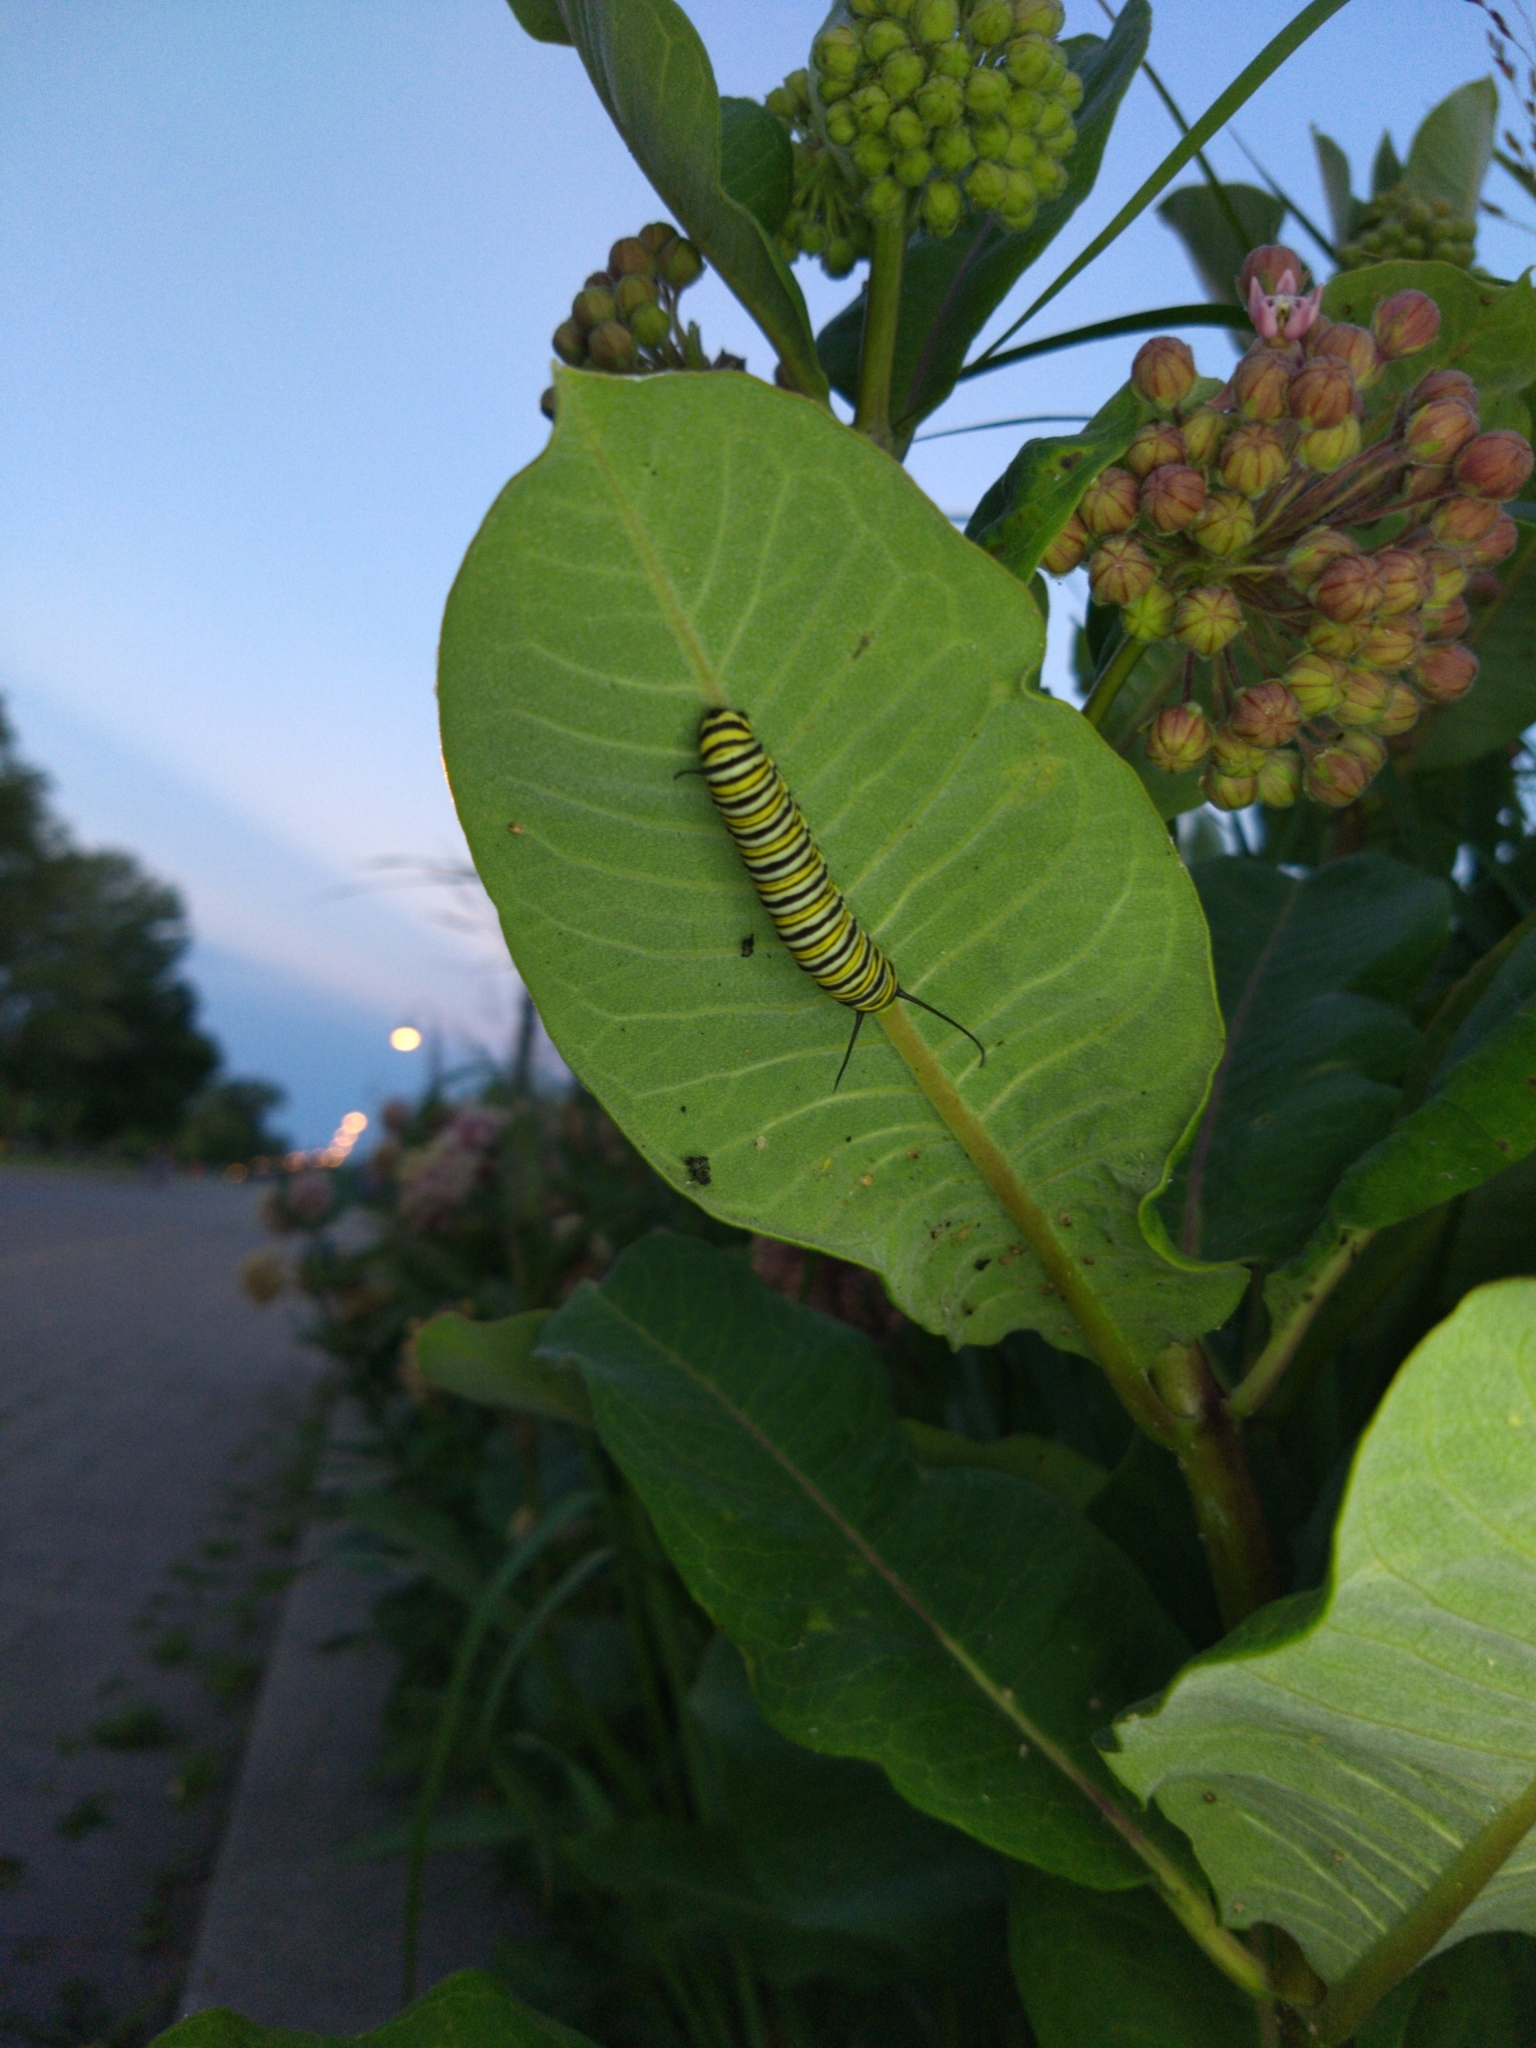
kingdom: Animalia
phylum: Arthropoda
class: Insecta
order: Lepidoptera
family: Nymphalidae
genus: Danaus
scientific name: Danaus plexippus
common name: Monarch
